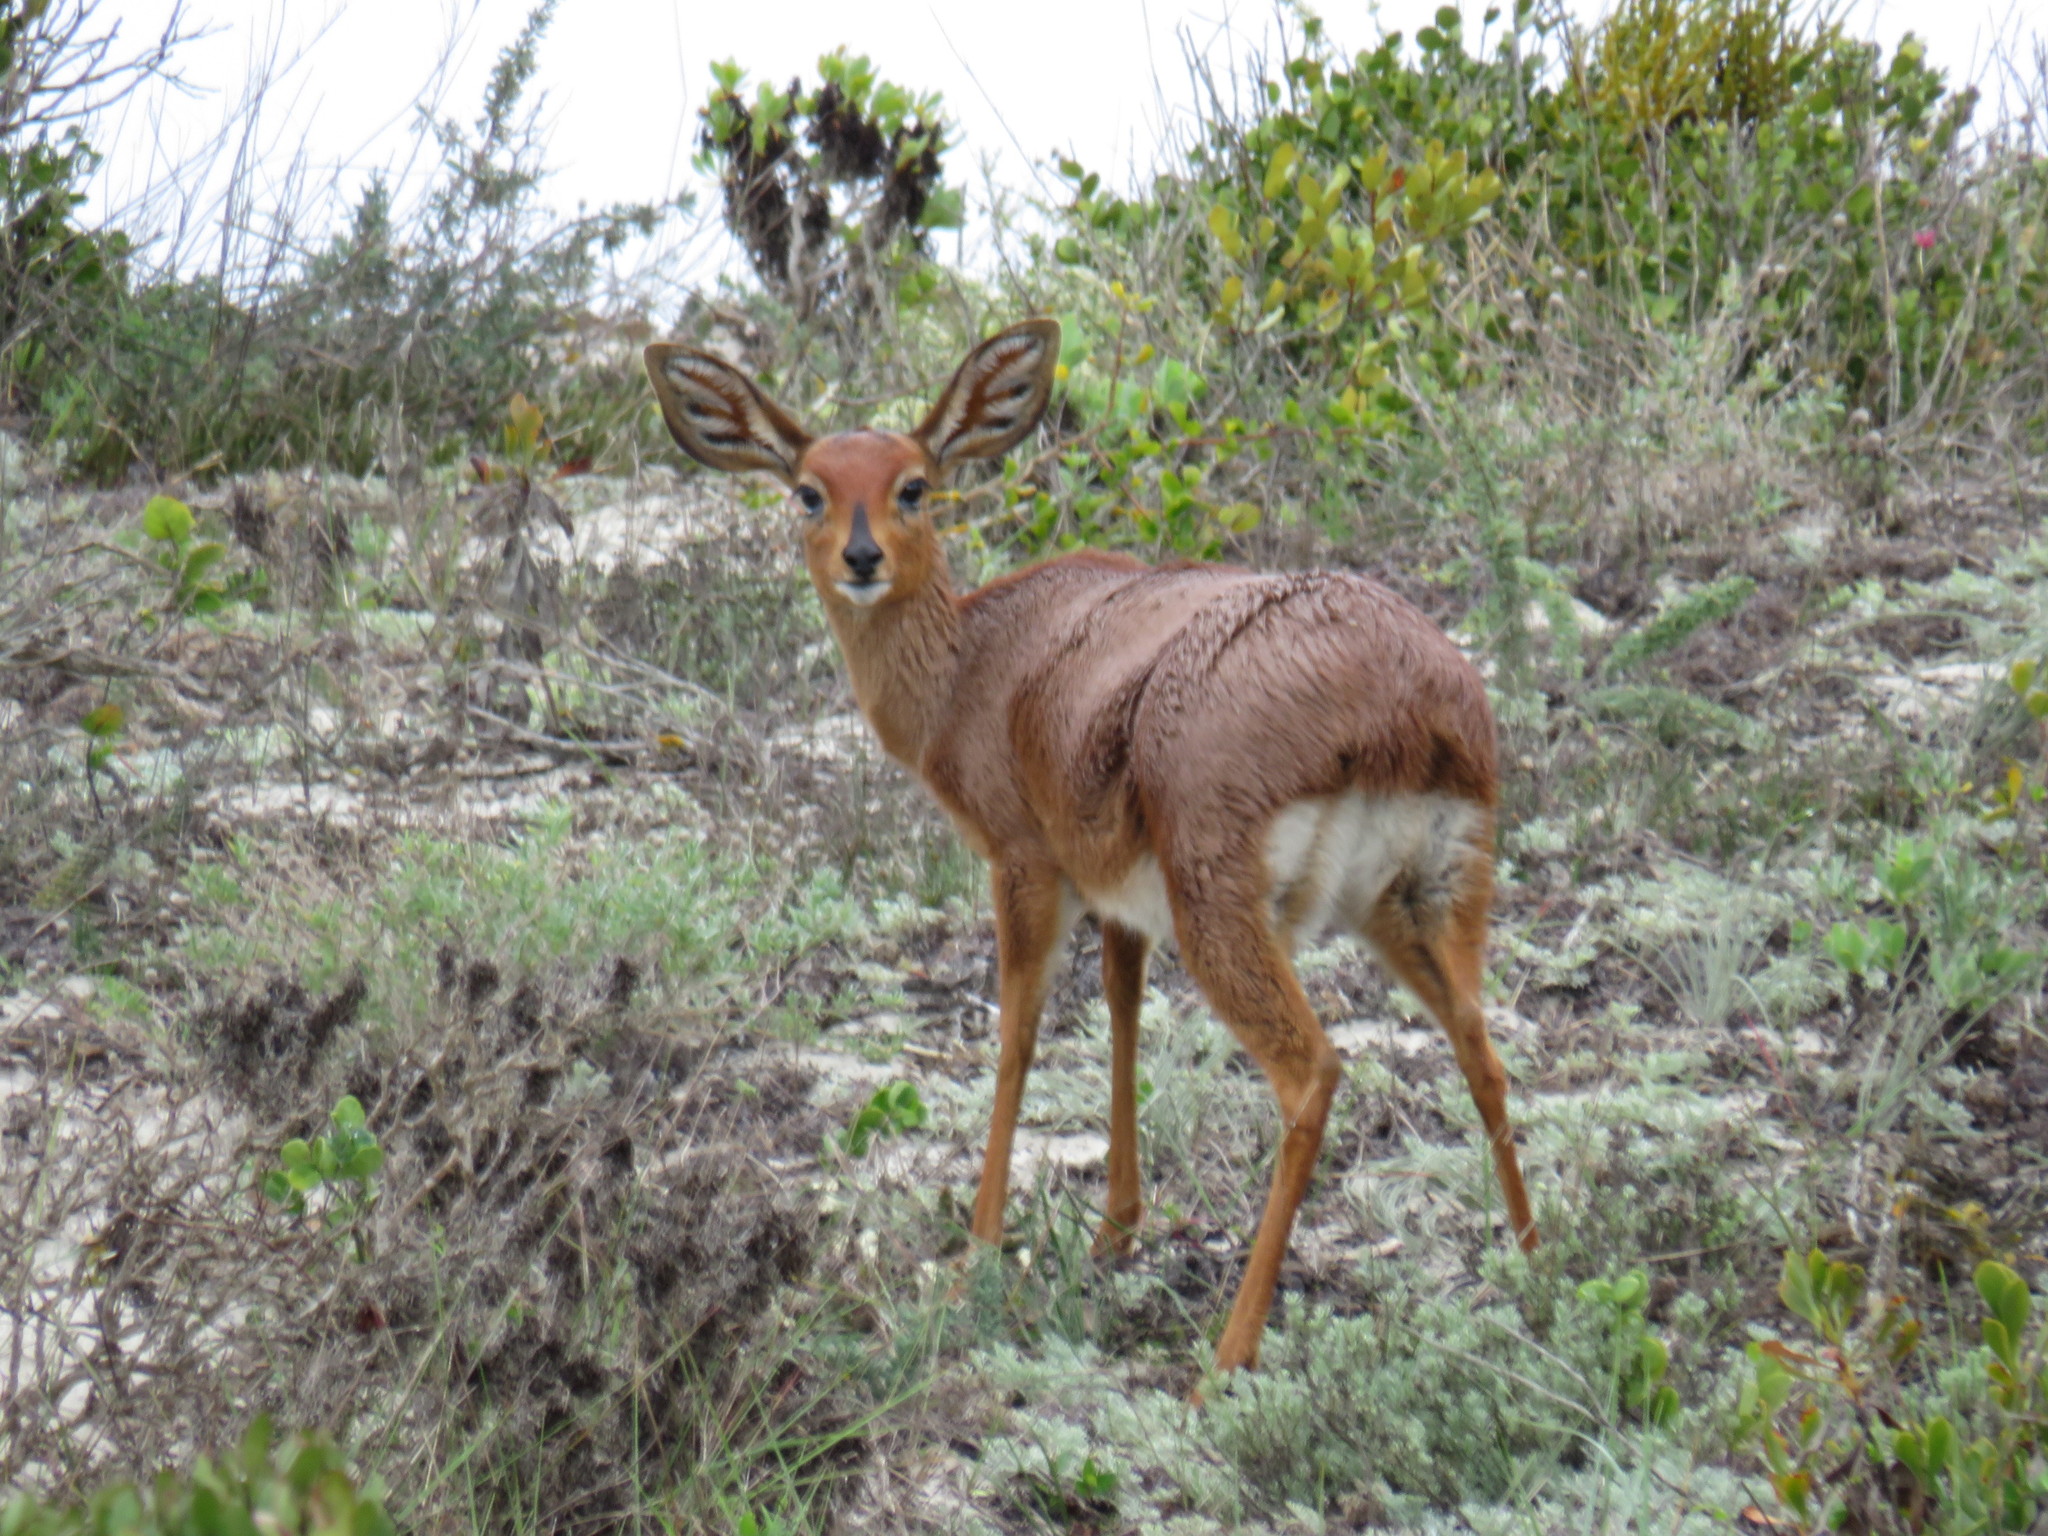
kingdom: Animalia
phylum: Chordata
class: Mammalia
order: Artiodactyla
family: Bovidae
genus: Raphicerus
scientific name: Raphicerus campestris
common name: Steenbok
